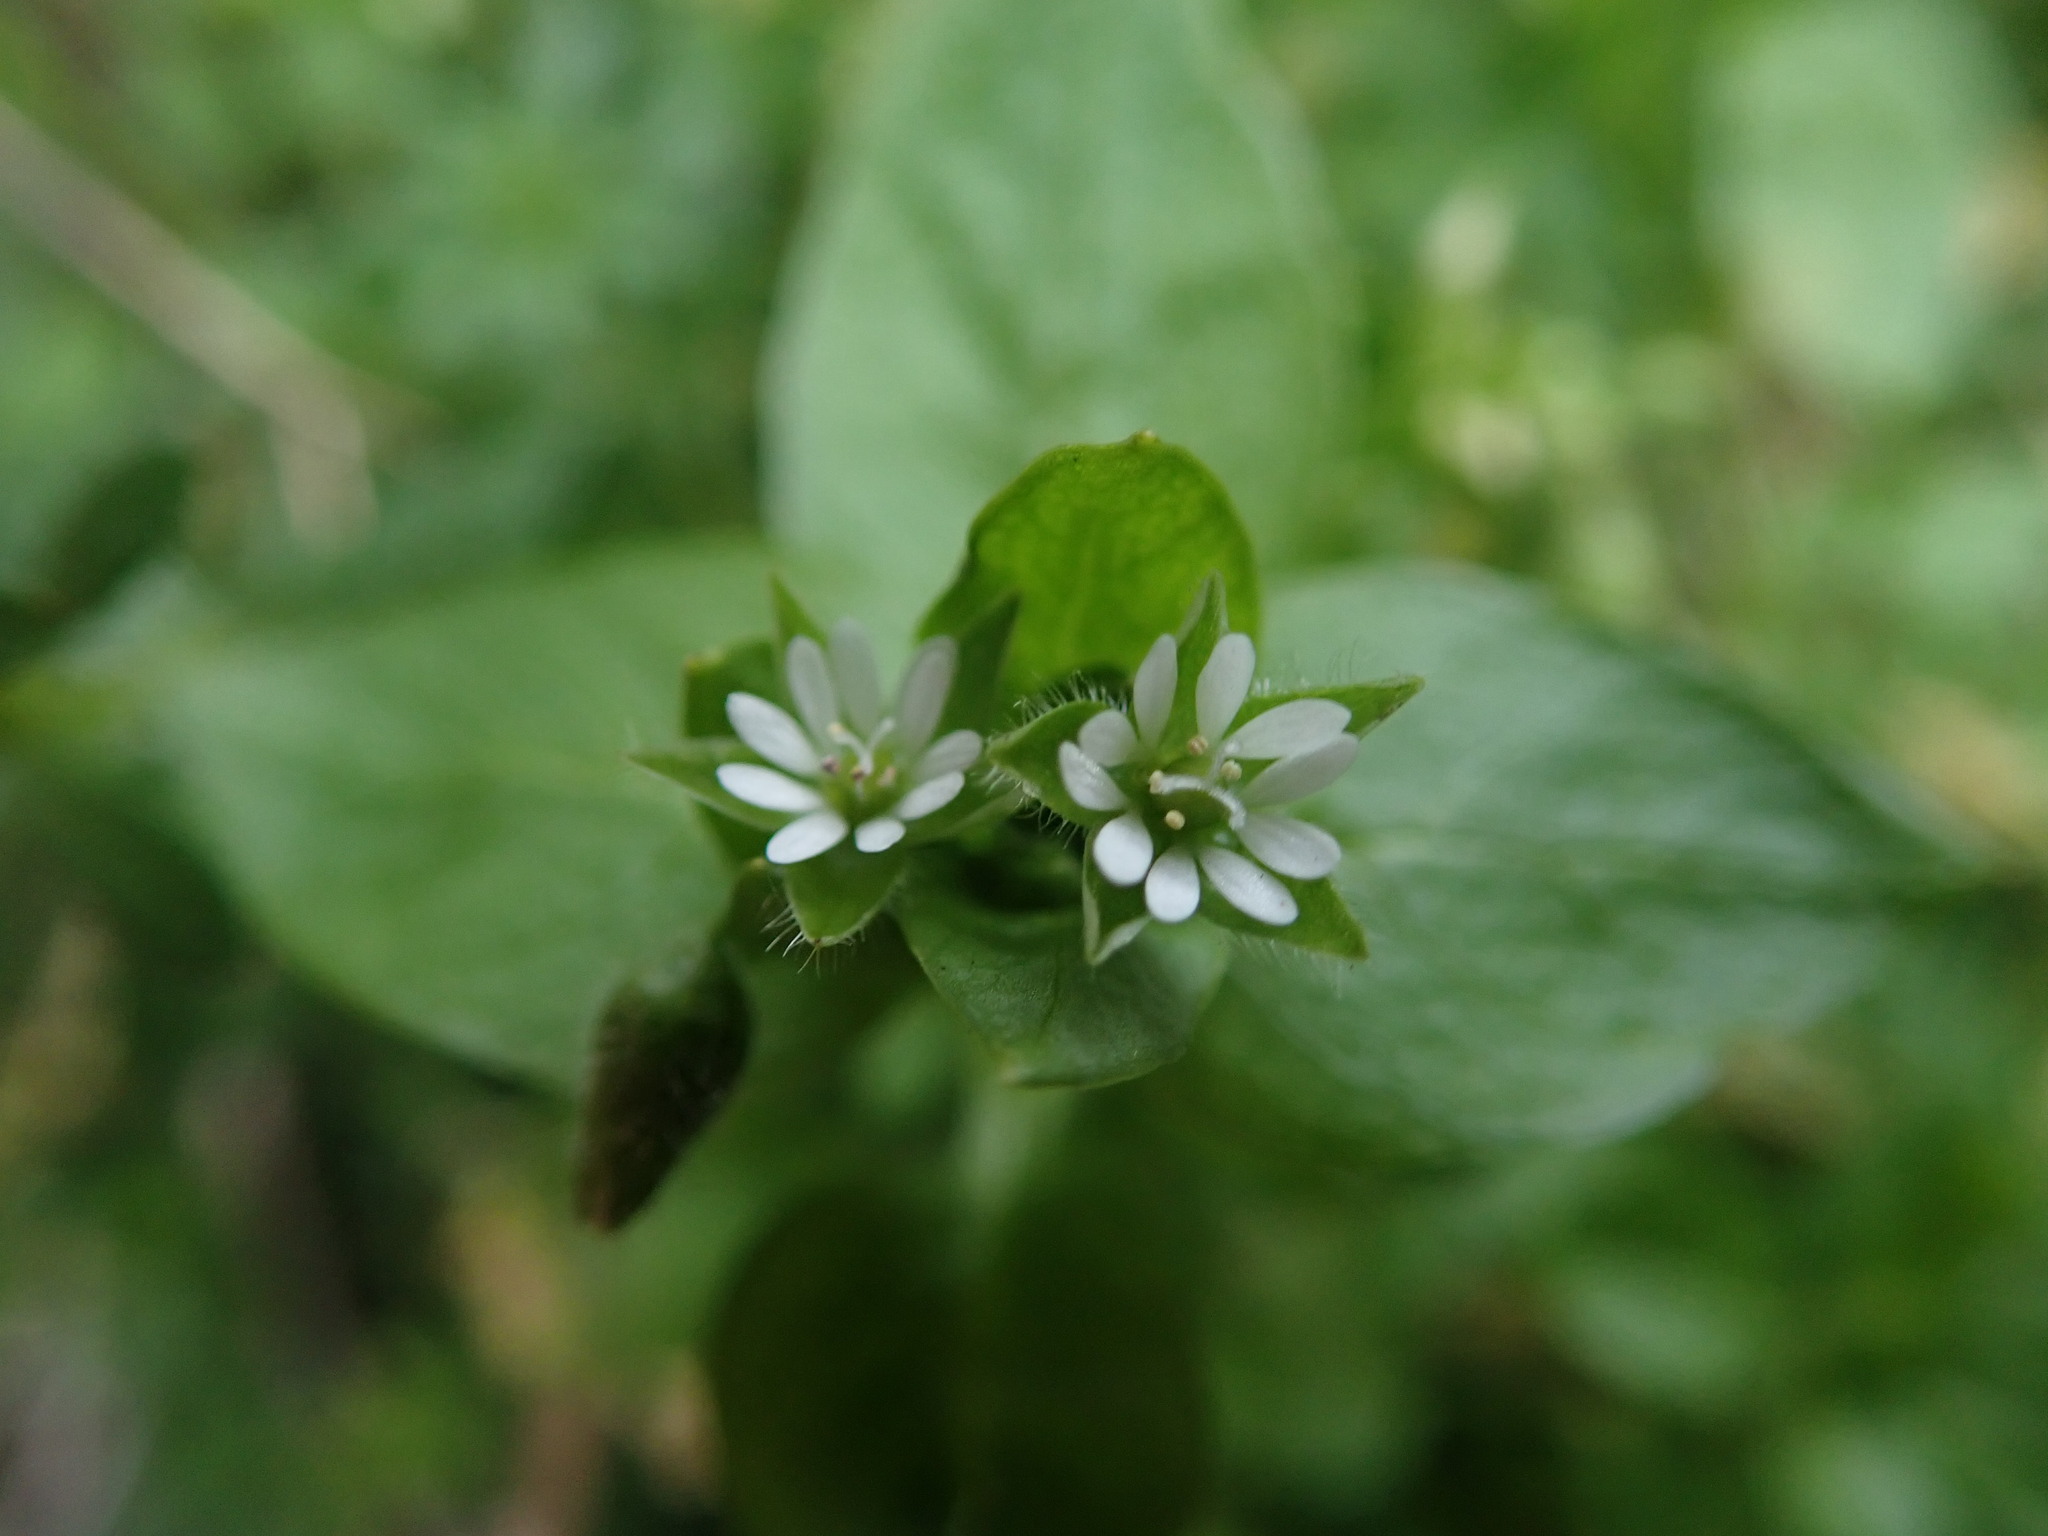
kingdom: Plantae
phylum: Tracheophyta
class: Magnoliopsida
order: Caryophyllales
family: Caryophyllaceae
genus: Stellaria
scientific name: Stellaria media
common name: Common chickweed
